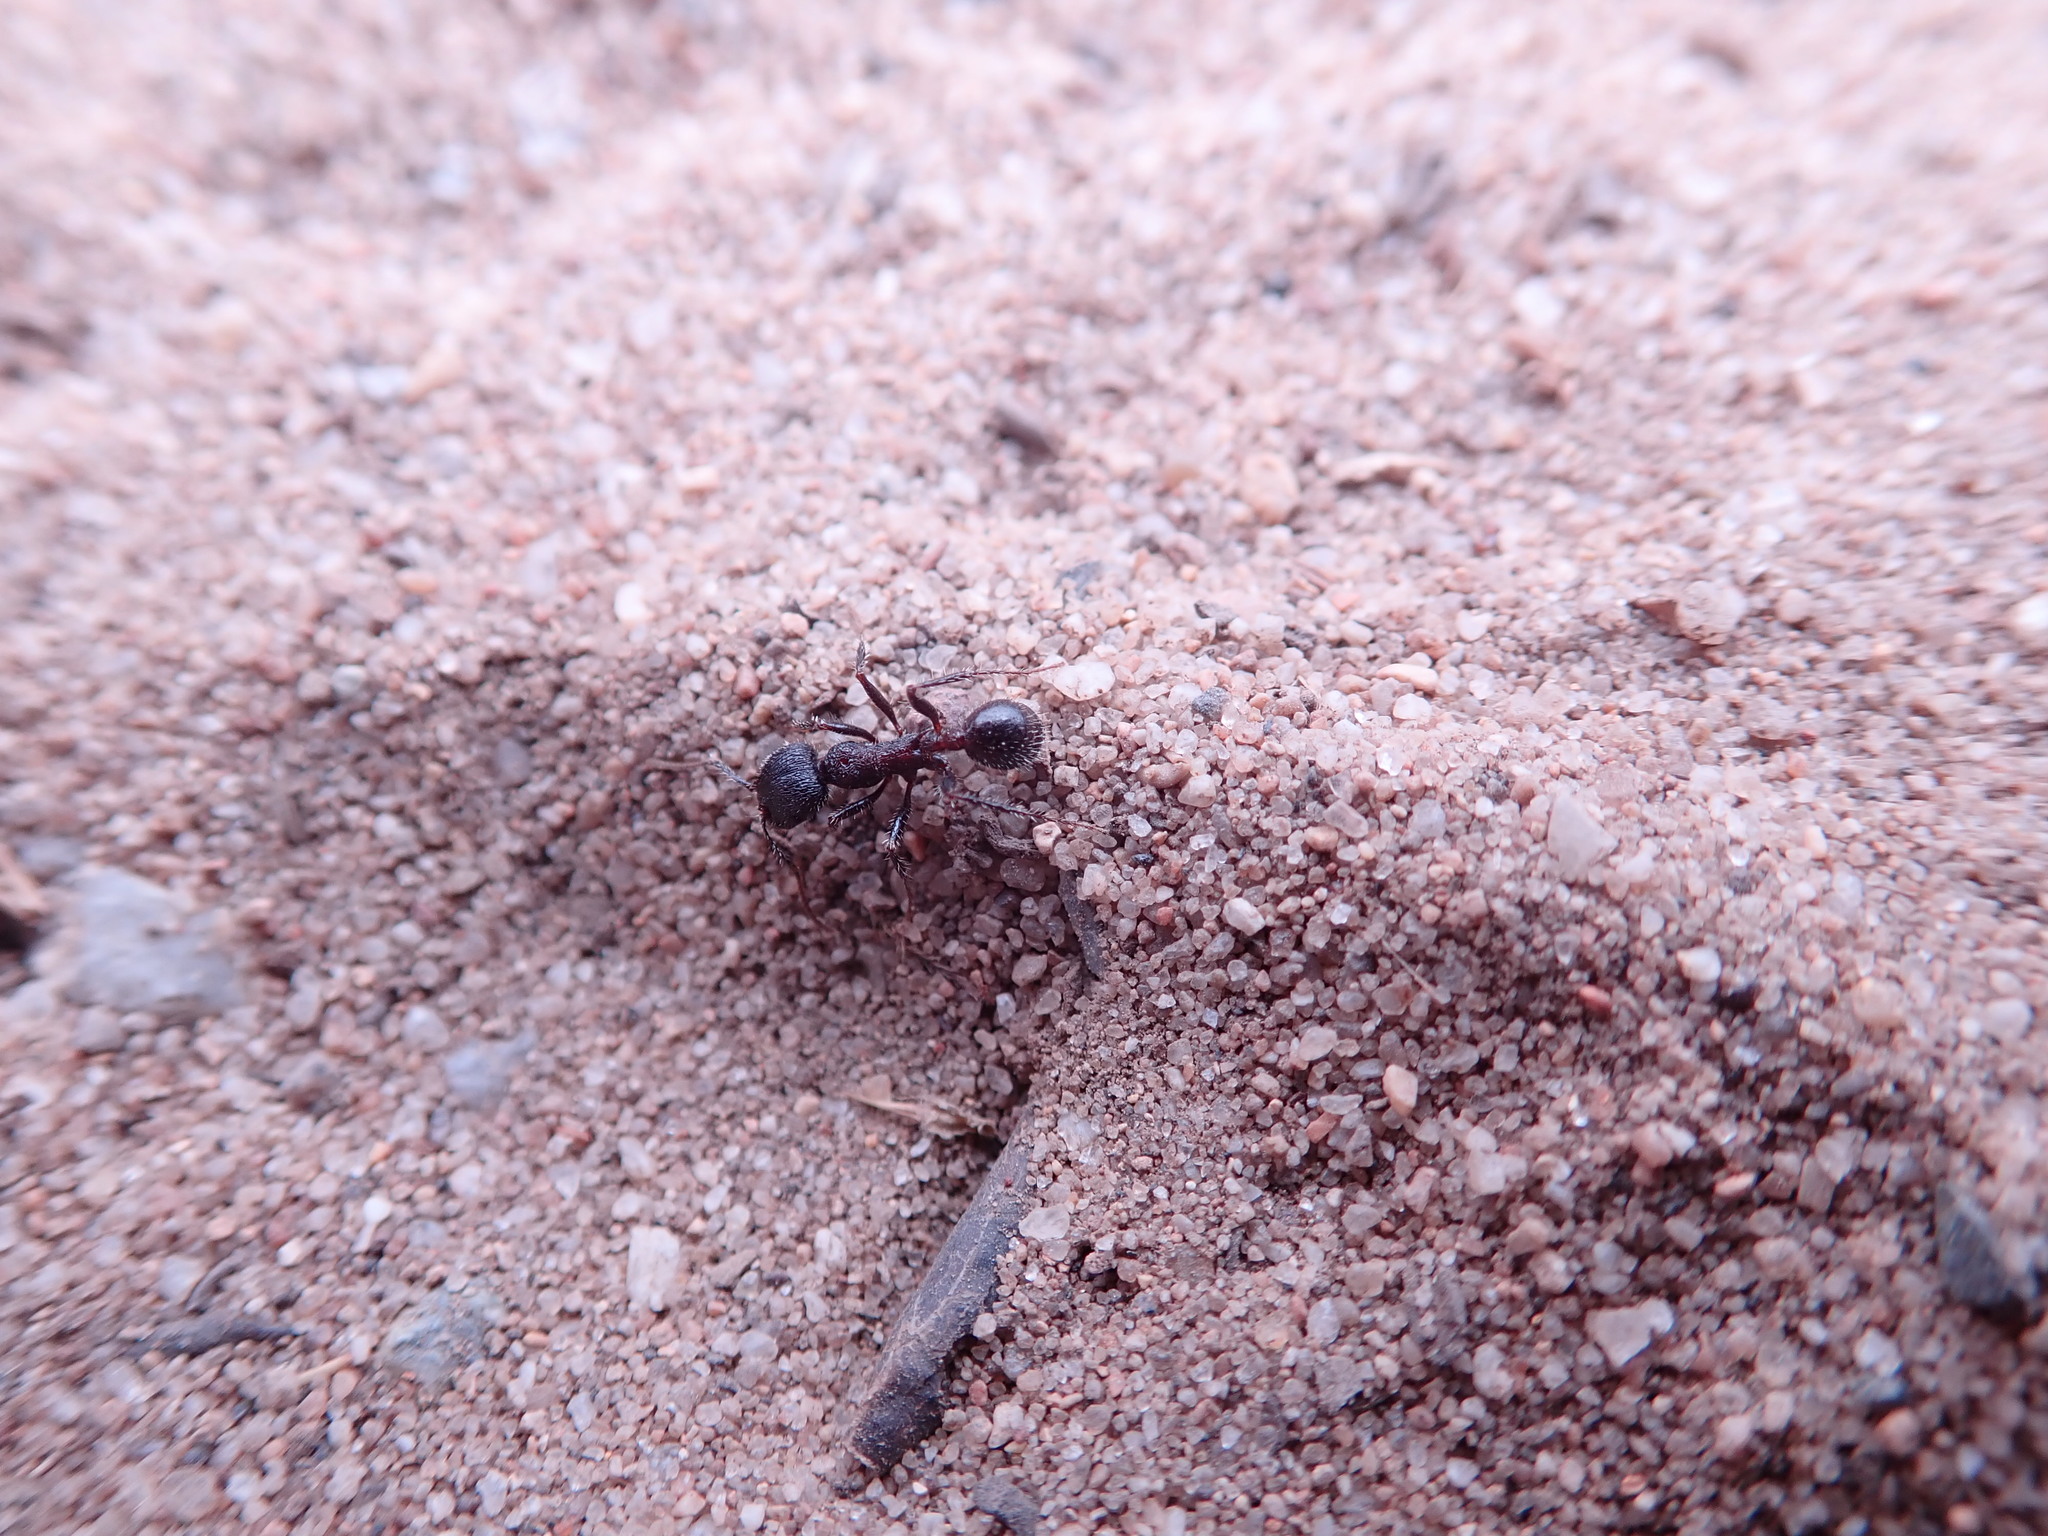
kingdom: Animalia
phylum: Arthropoda
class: Insecta
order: Hymenoptera
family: Formicidae
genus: Veromessor
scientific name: Veromessor andrei
